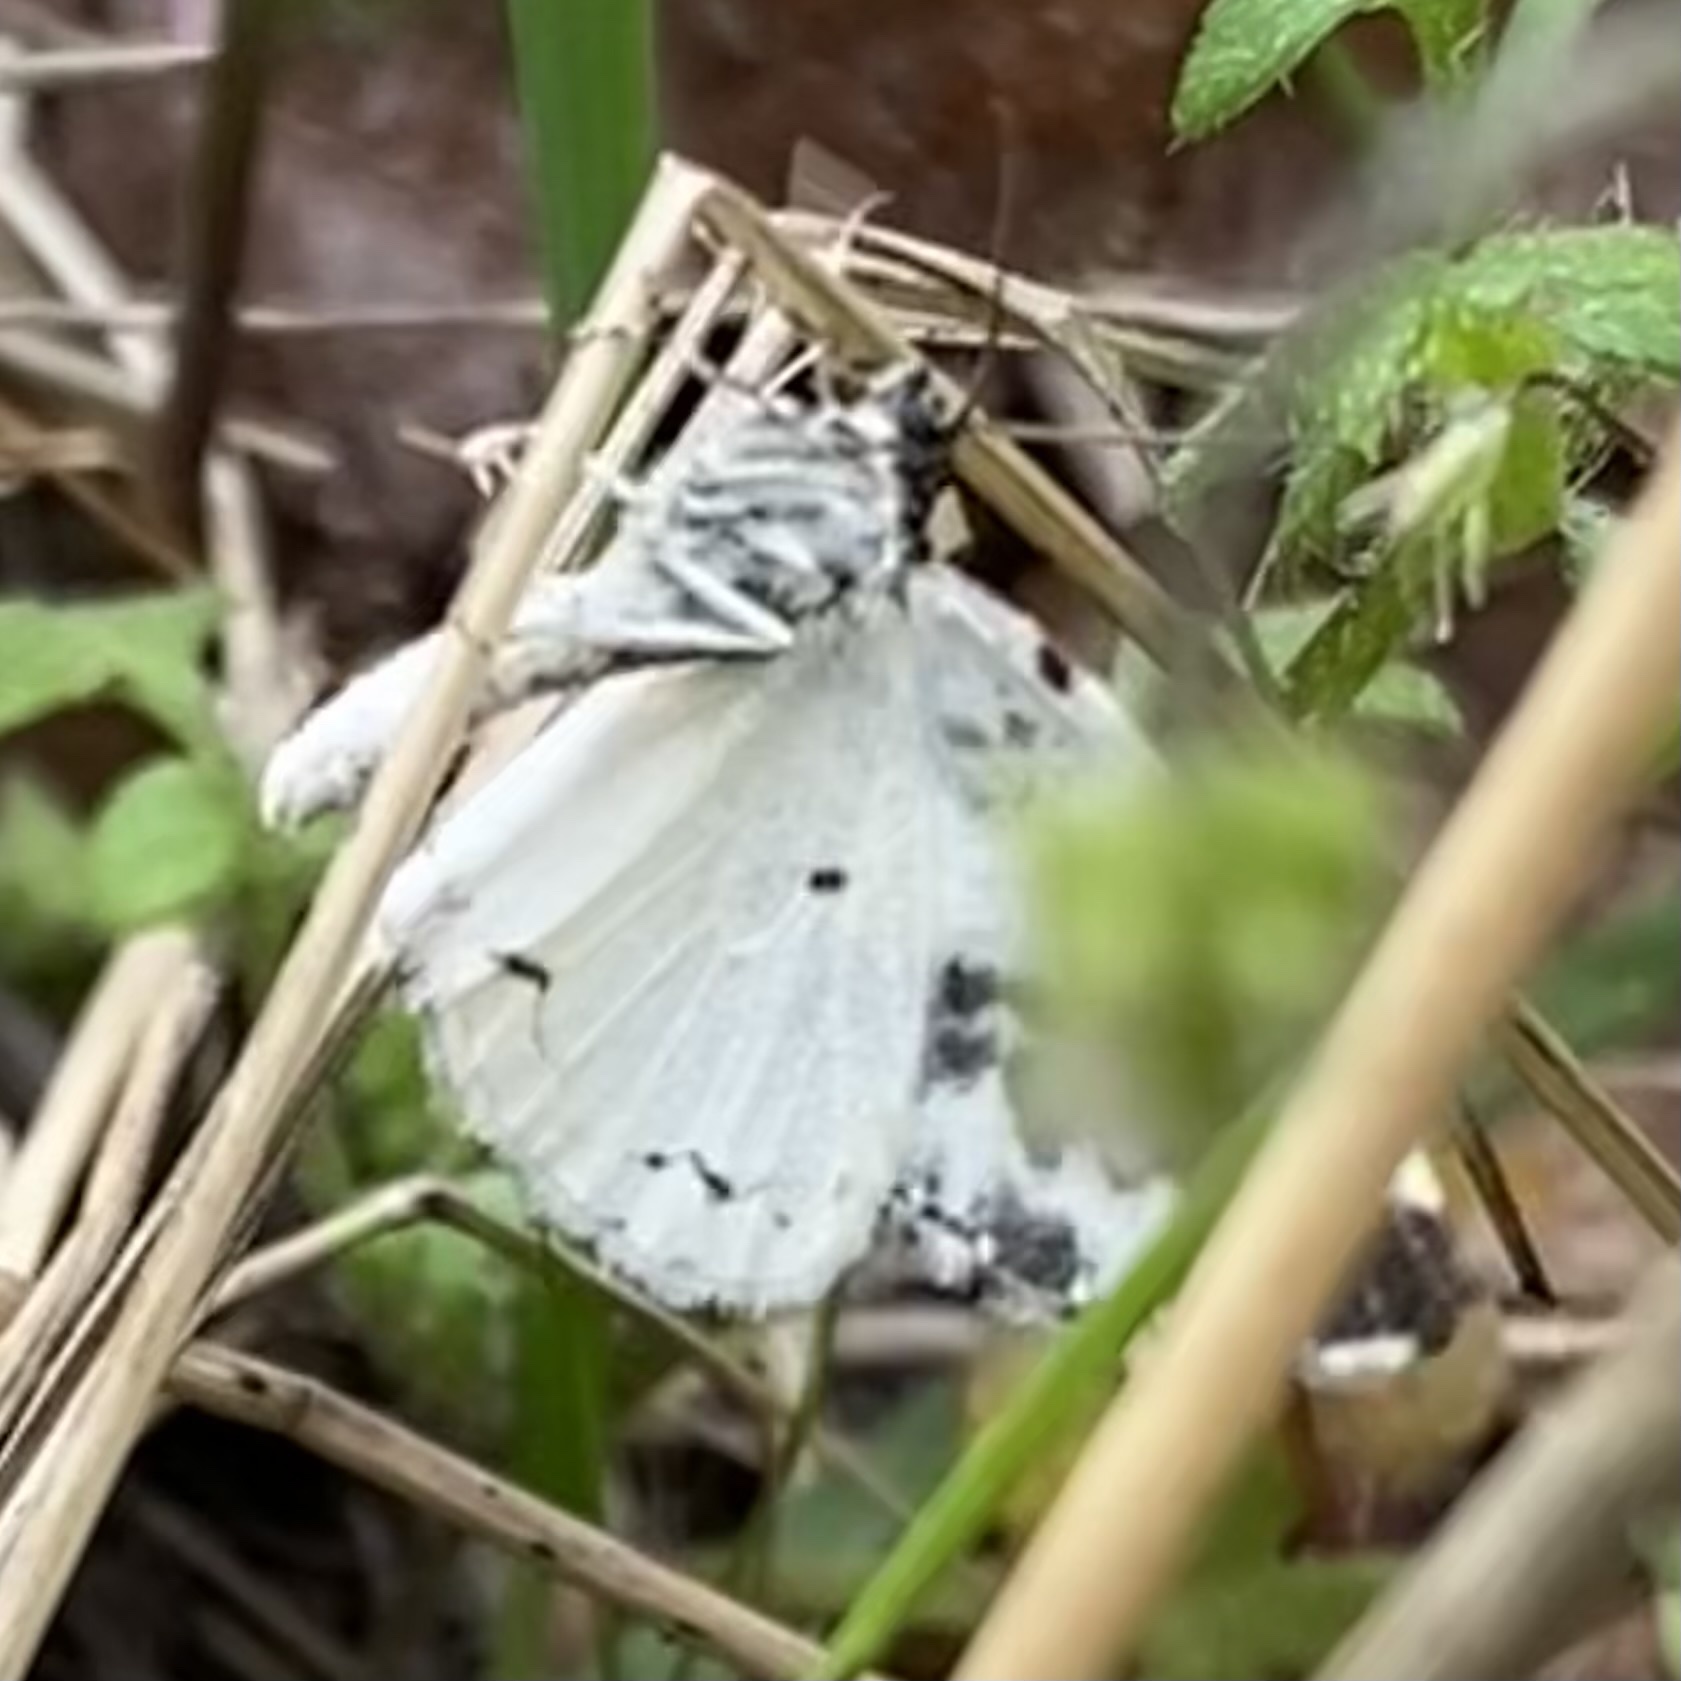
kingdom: Animalia
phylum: Arthropoda
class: Insecta
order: Lepidoptera
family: Geometridae
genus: Mesoleuca
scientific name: Mesoleuca gratulata
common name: Half-white carpet moth
